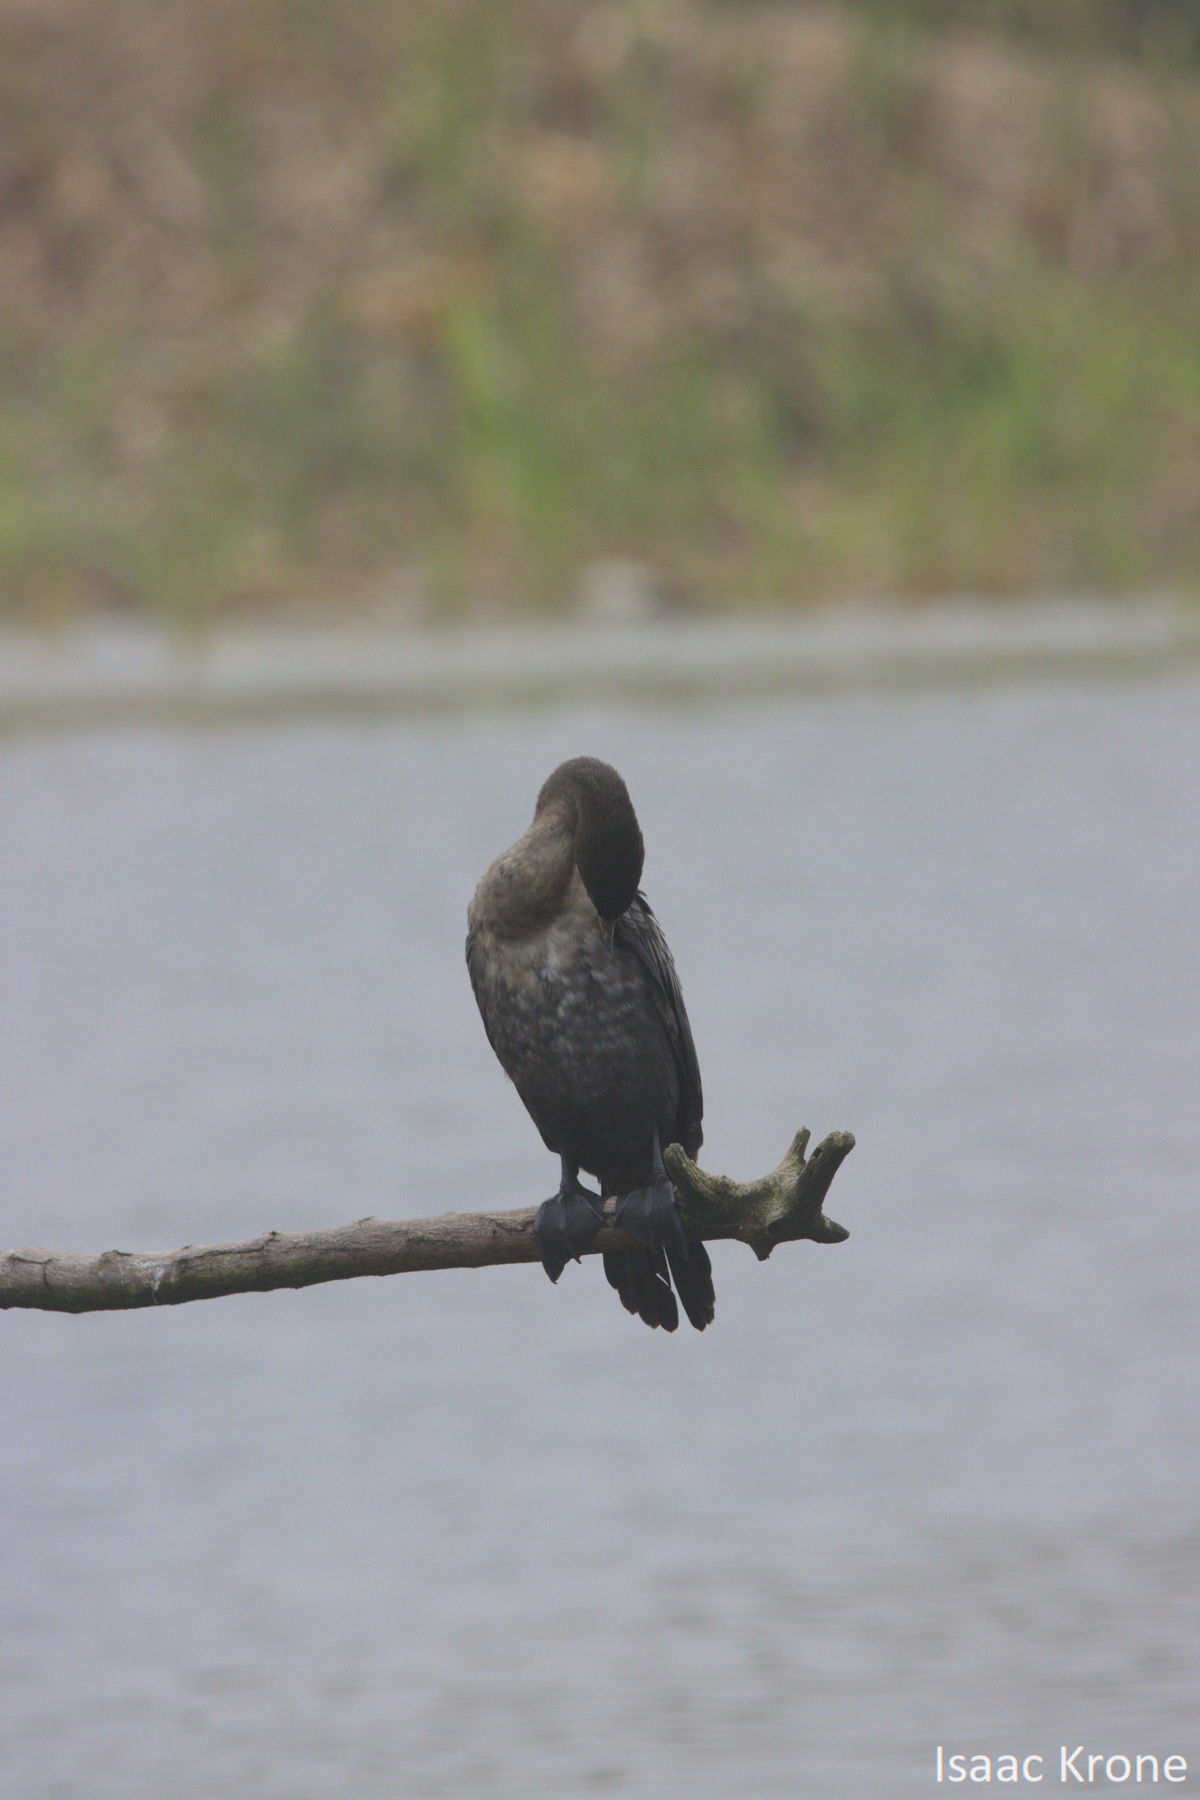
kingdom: Animalia
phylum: Chordata
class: Aves
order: Suliformes
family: Phalacrocoracidae
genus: Phalacrocorax
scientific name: Phalacrocorax brasilianus
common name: Neotropic cormorant
